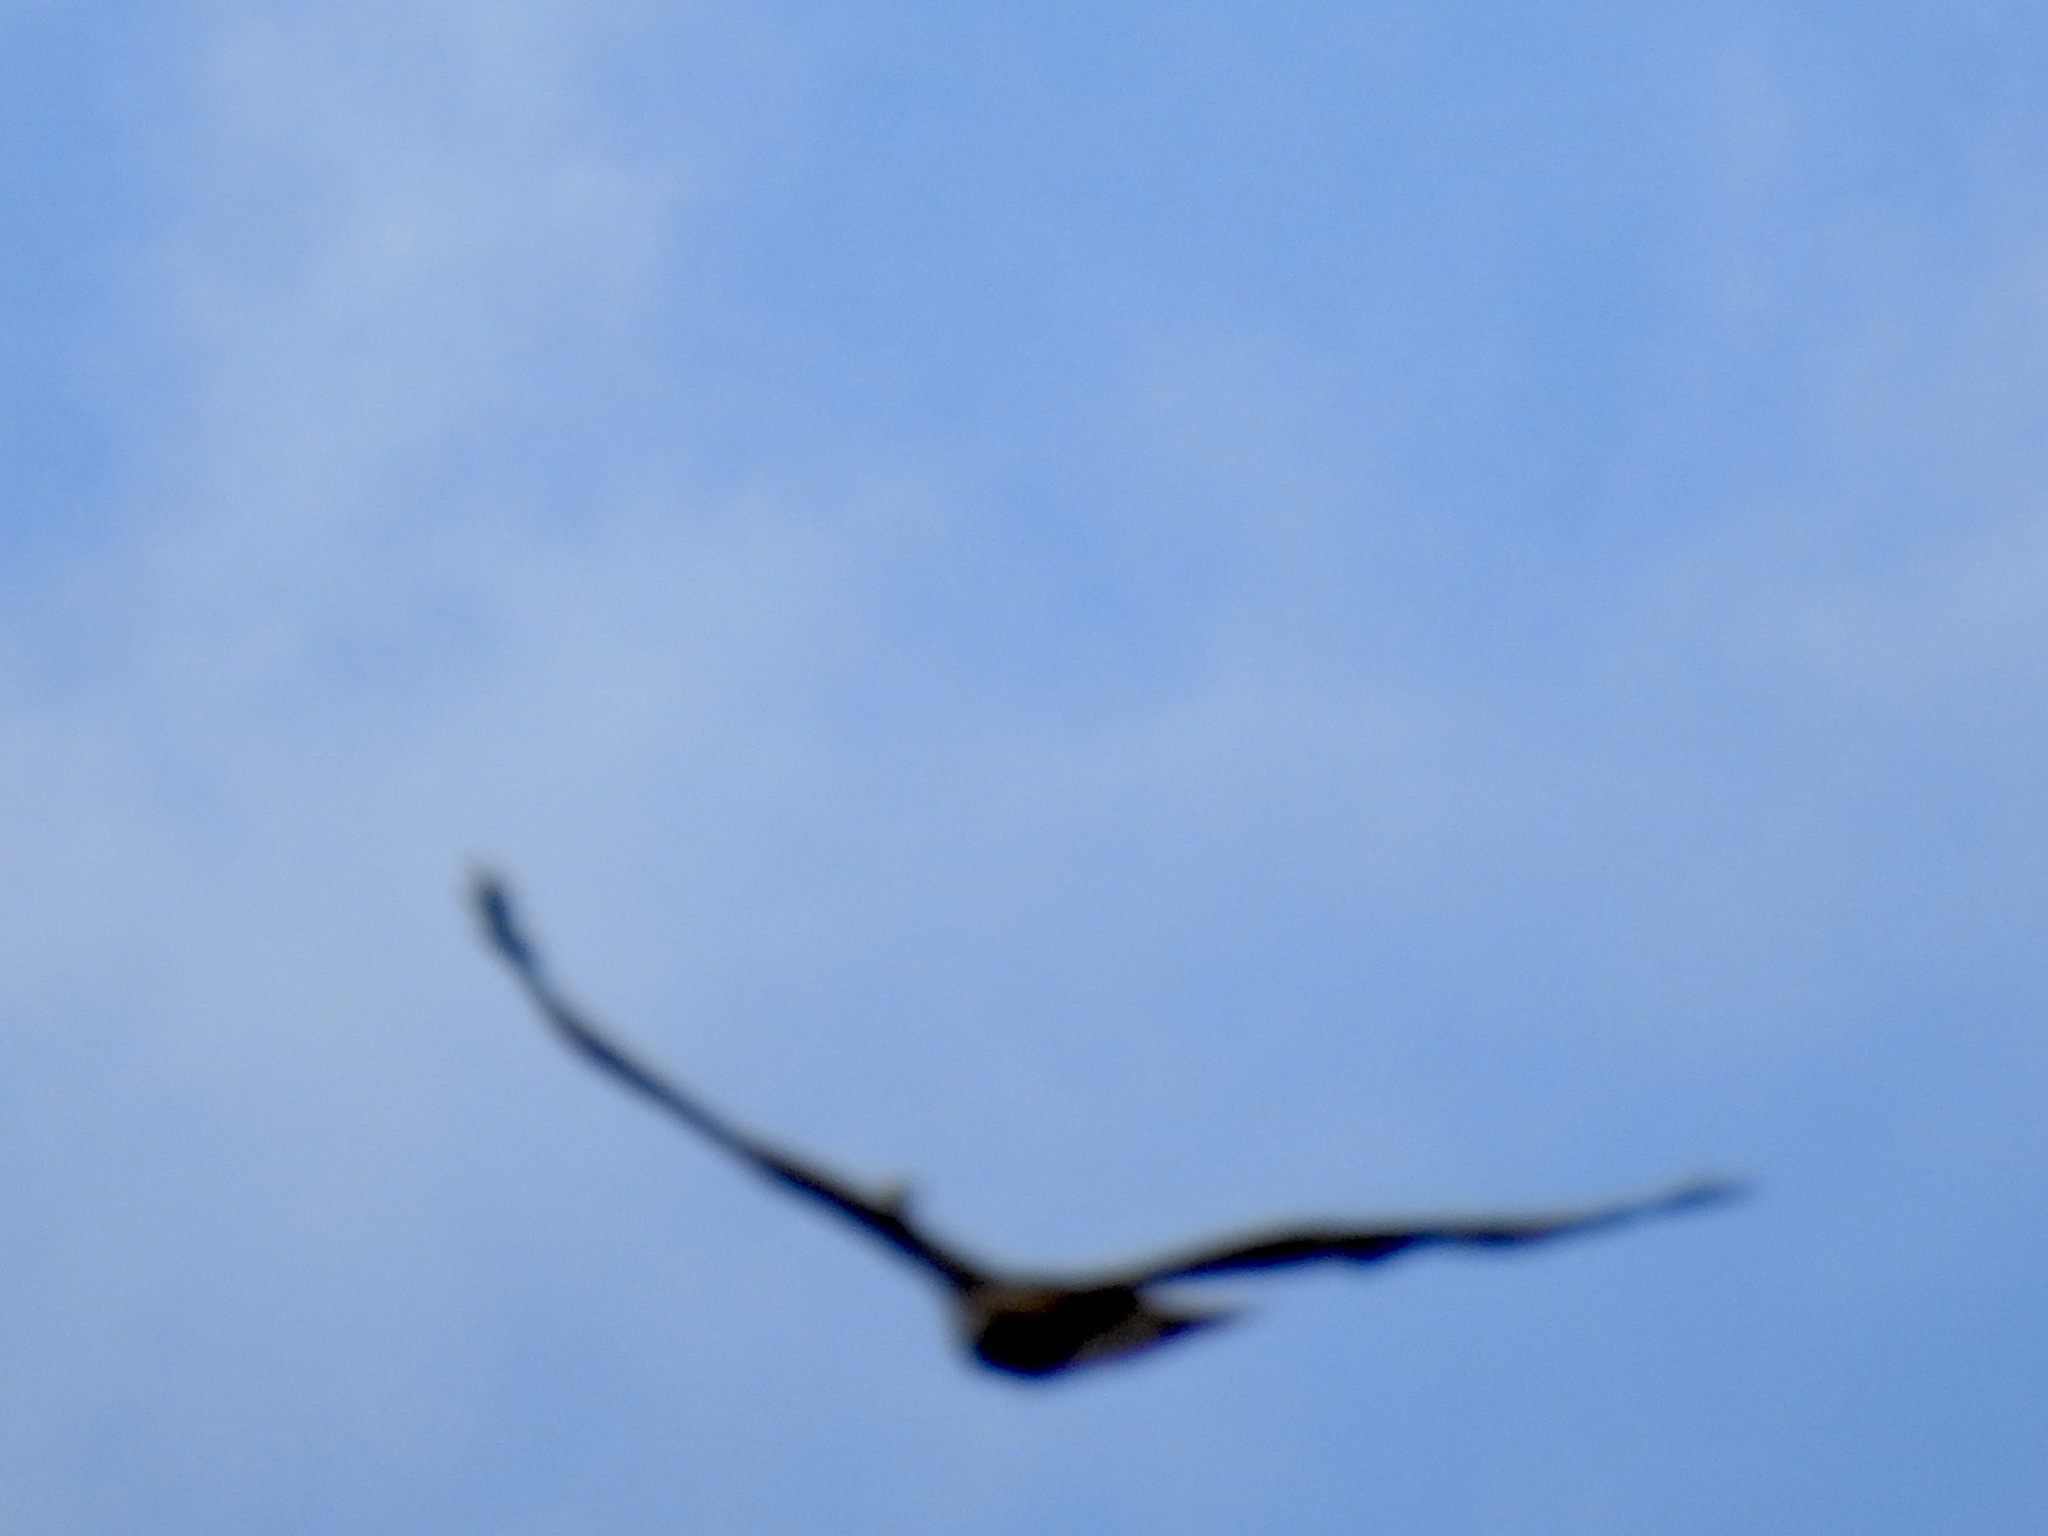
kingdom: Animalia
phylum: Chordata
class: Aves
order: Accipitriformes
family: Accipitridae
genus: Buteo
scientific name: Buteo jamaicensis
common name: Red-tailed hawk
